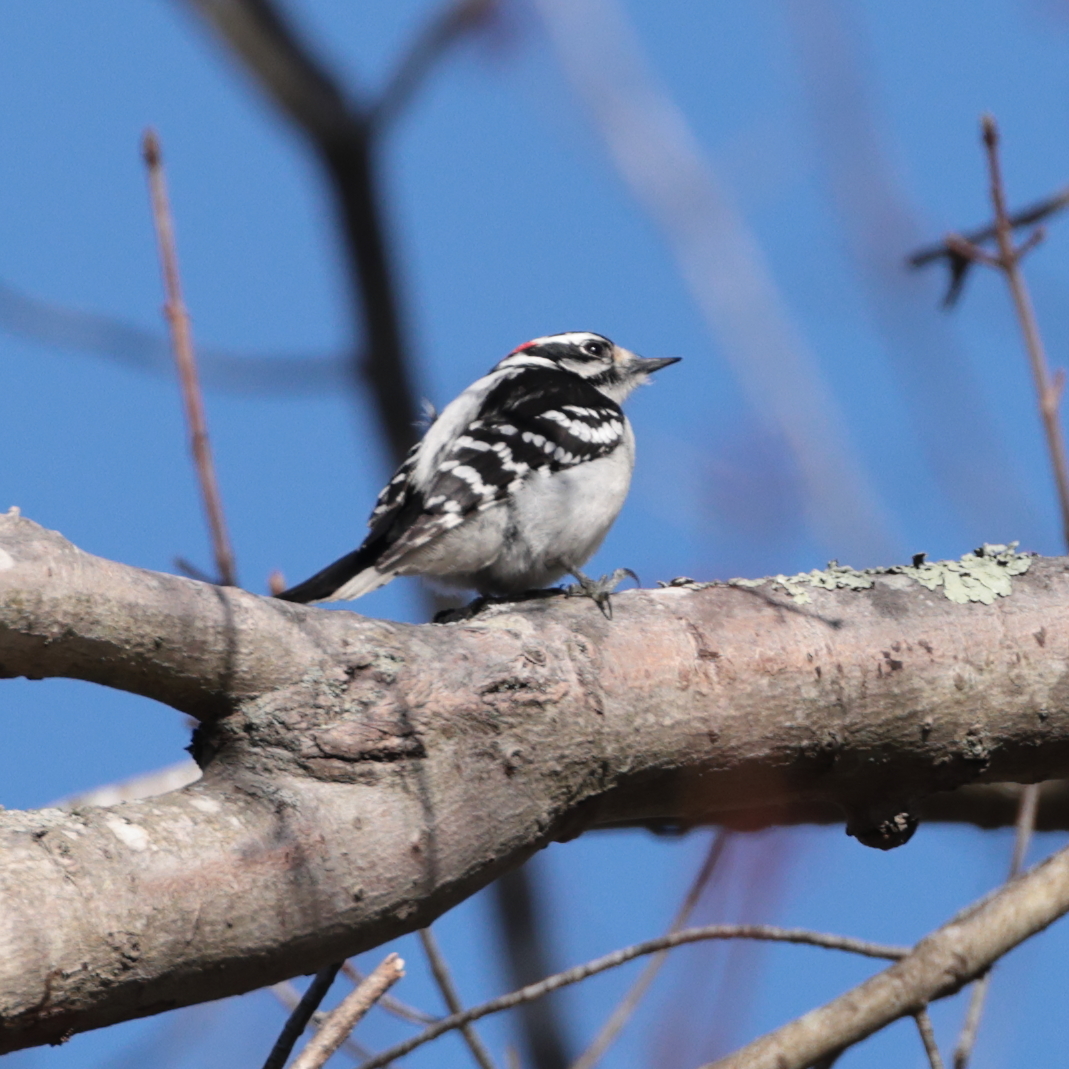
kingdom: Animalia
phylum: Chordata
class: Aves
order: Piciformes
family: Picidae
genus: Dryobates
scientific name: Dryobates pubescens
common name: Downy woodpecker
